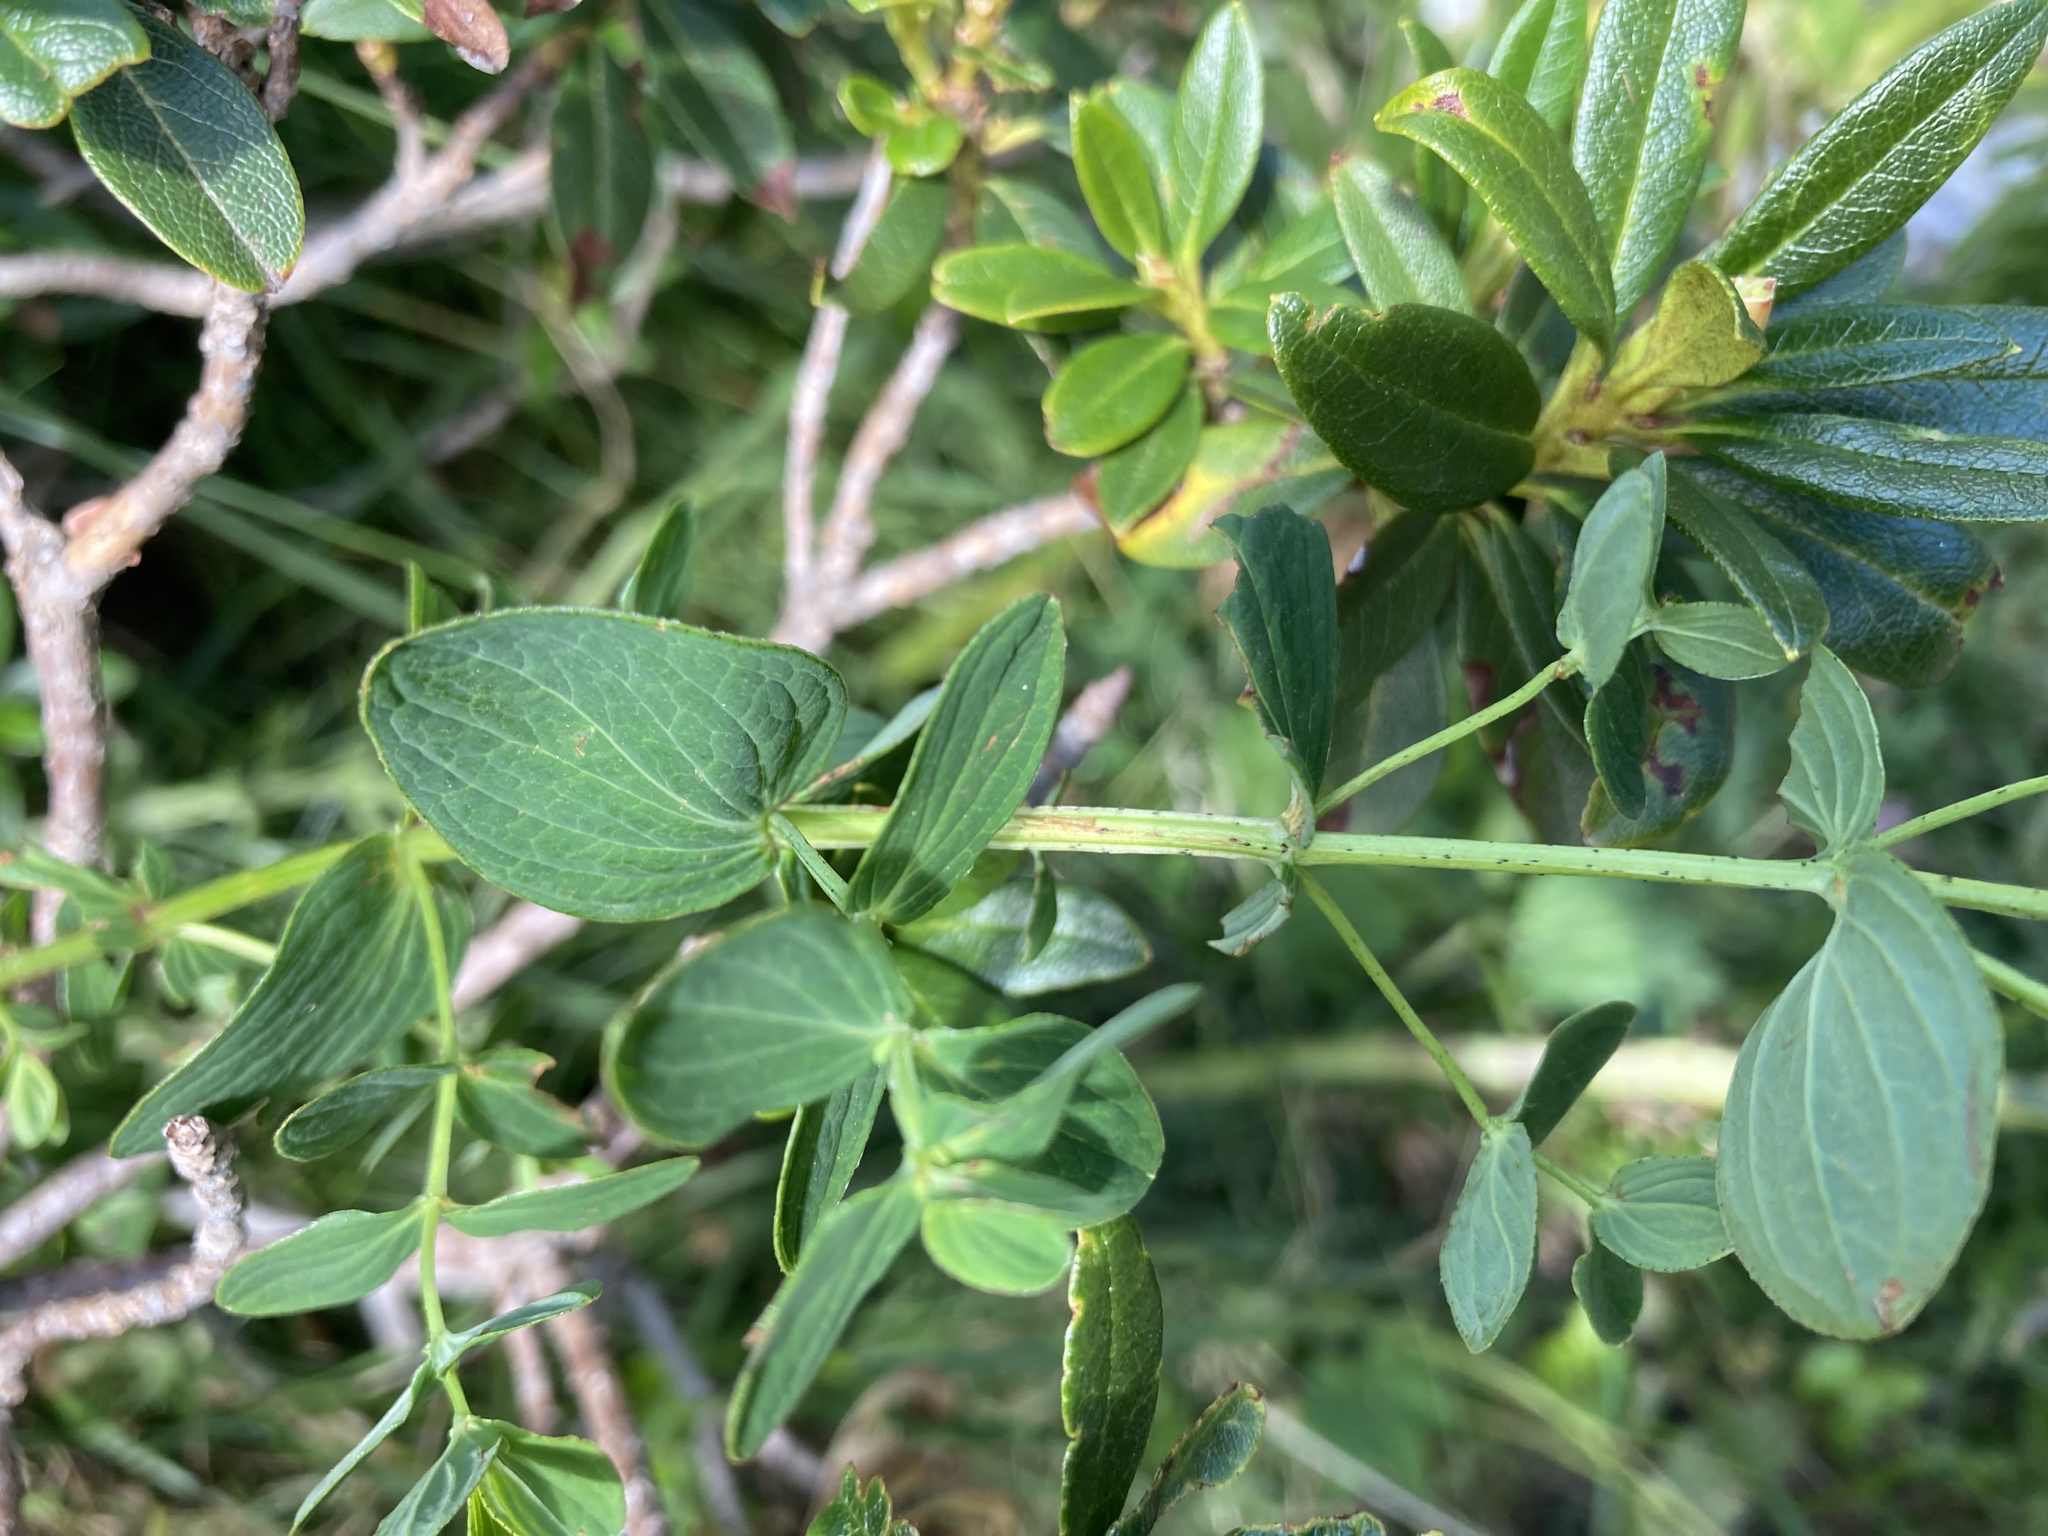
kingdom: Plantae
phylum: Tracheophyta
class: Magnoliopsida
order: Malpighiales
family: Hypericaceae
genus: Hypericum
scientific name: Hypericum maculatum
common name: Imperforate st. john's-wort
